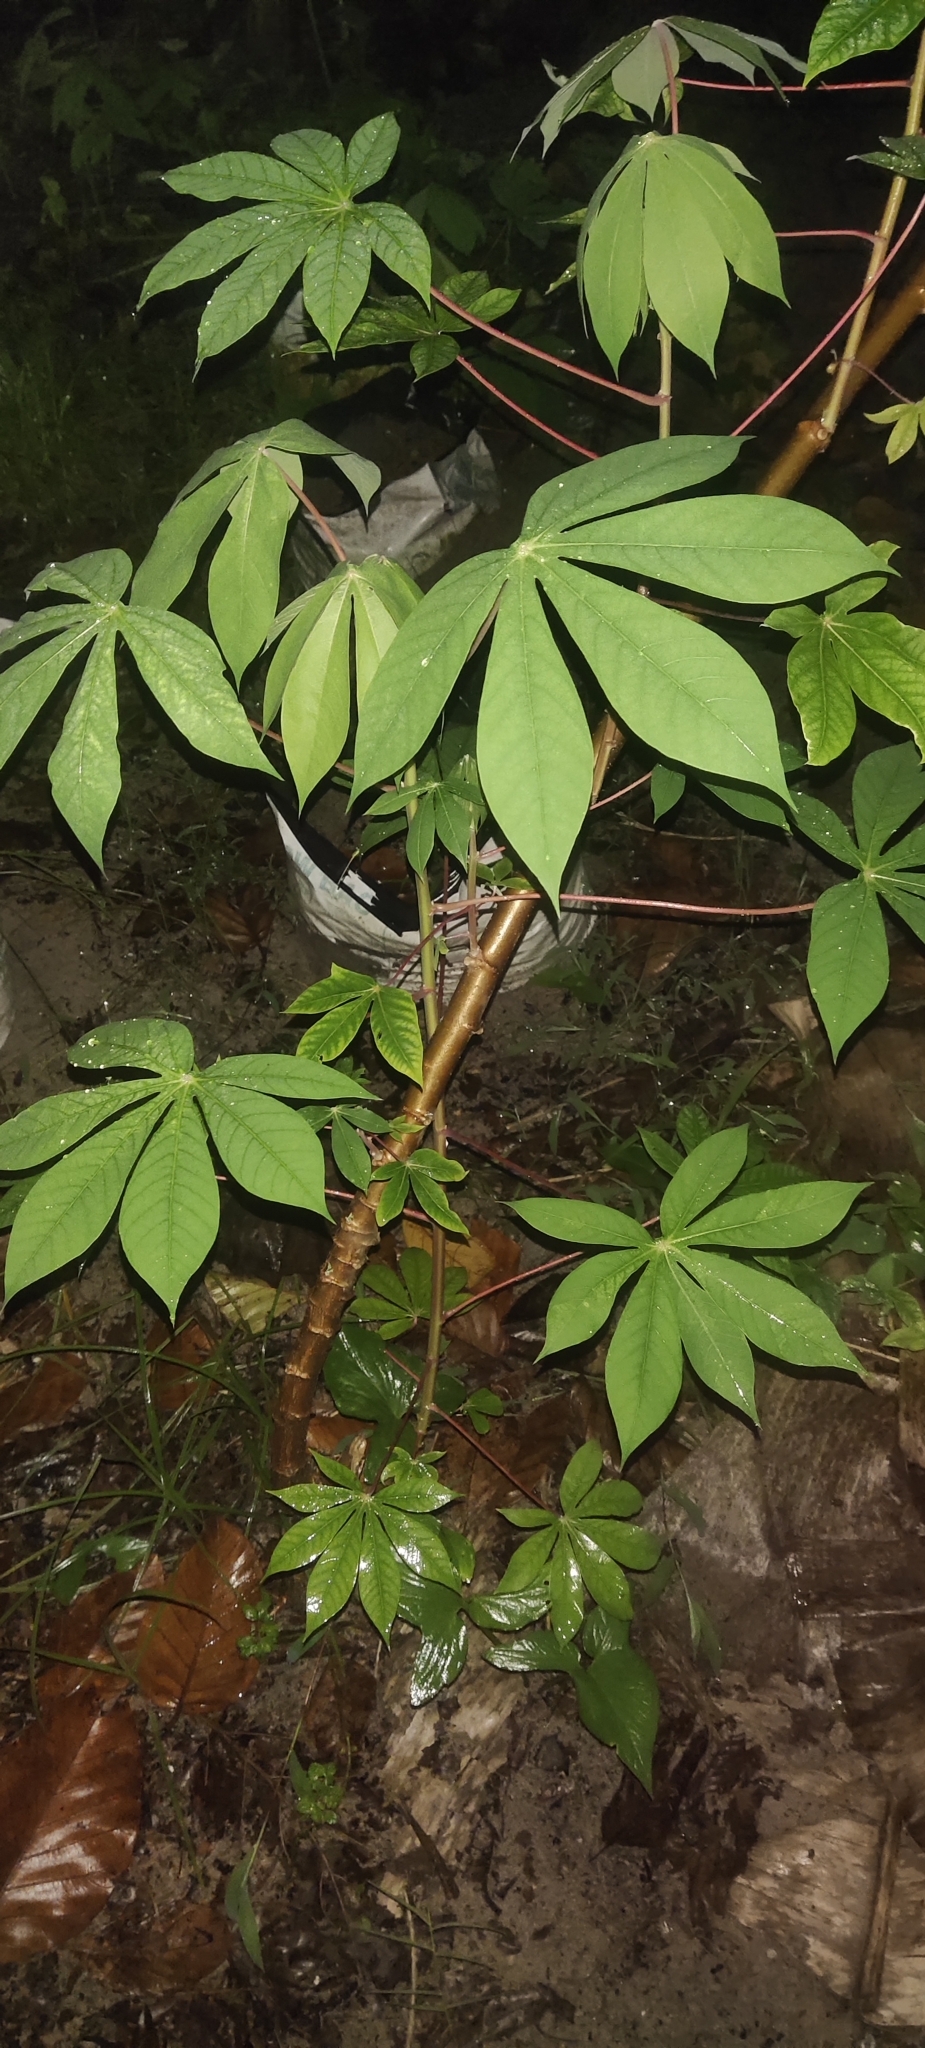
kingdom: Plantae
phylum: Tracheophyta
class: Magnoliopsida
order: Malpighiales
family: Euphorbiaceae
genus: Manihot
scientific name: Manihot esculenta
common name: Cassava
